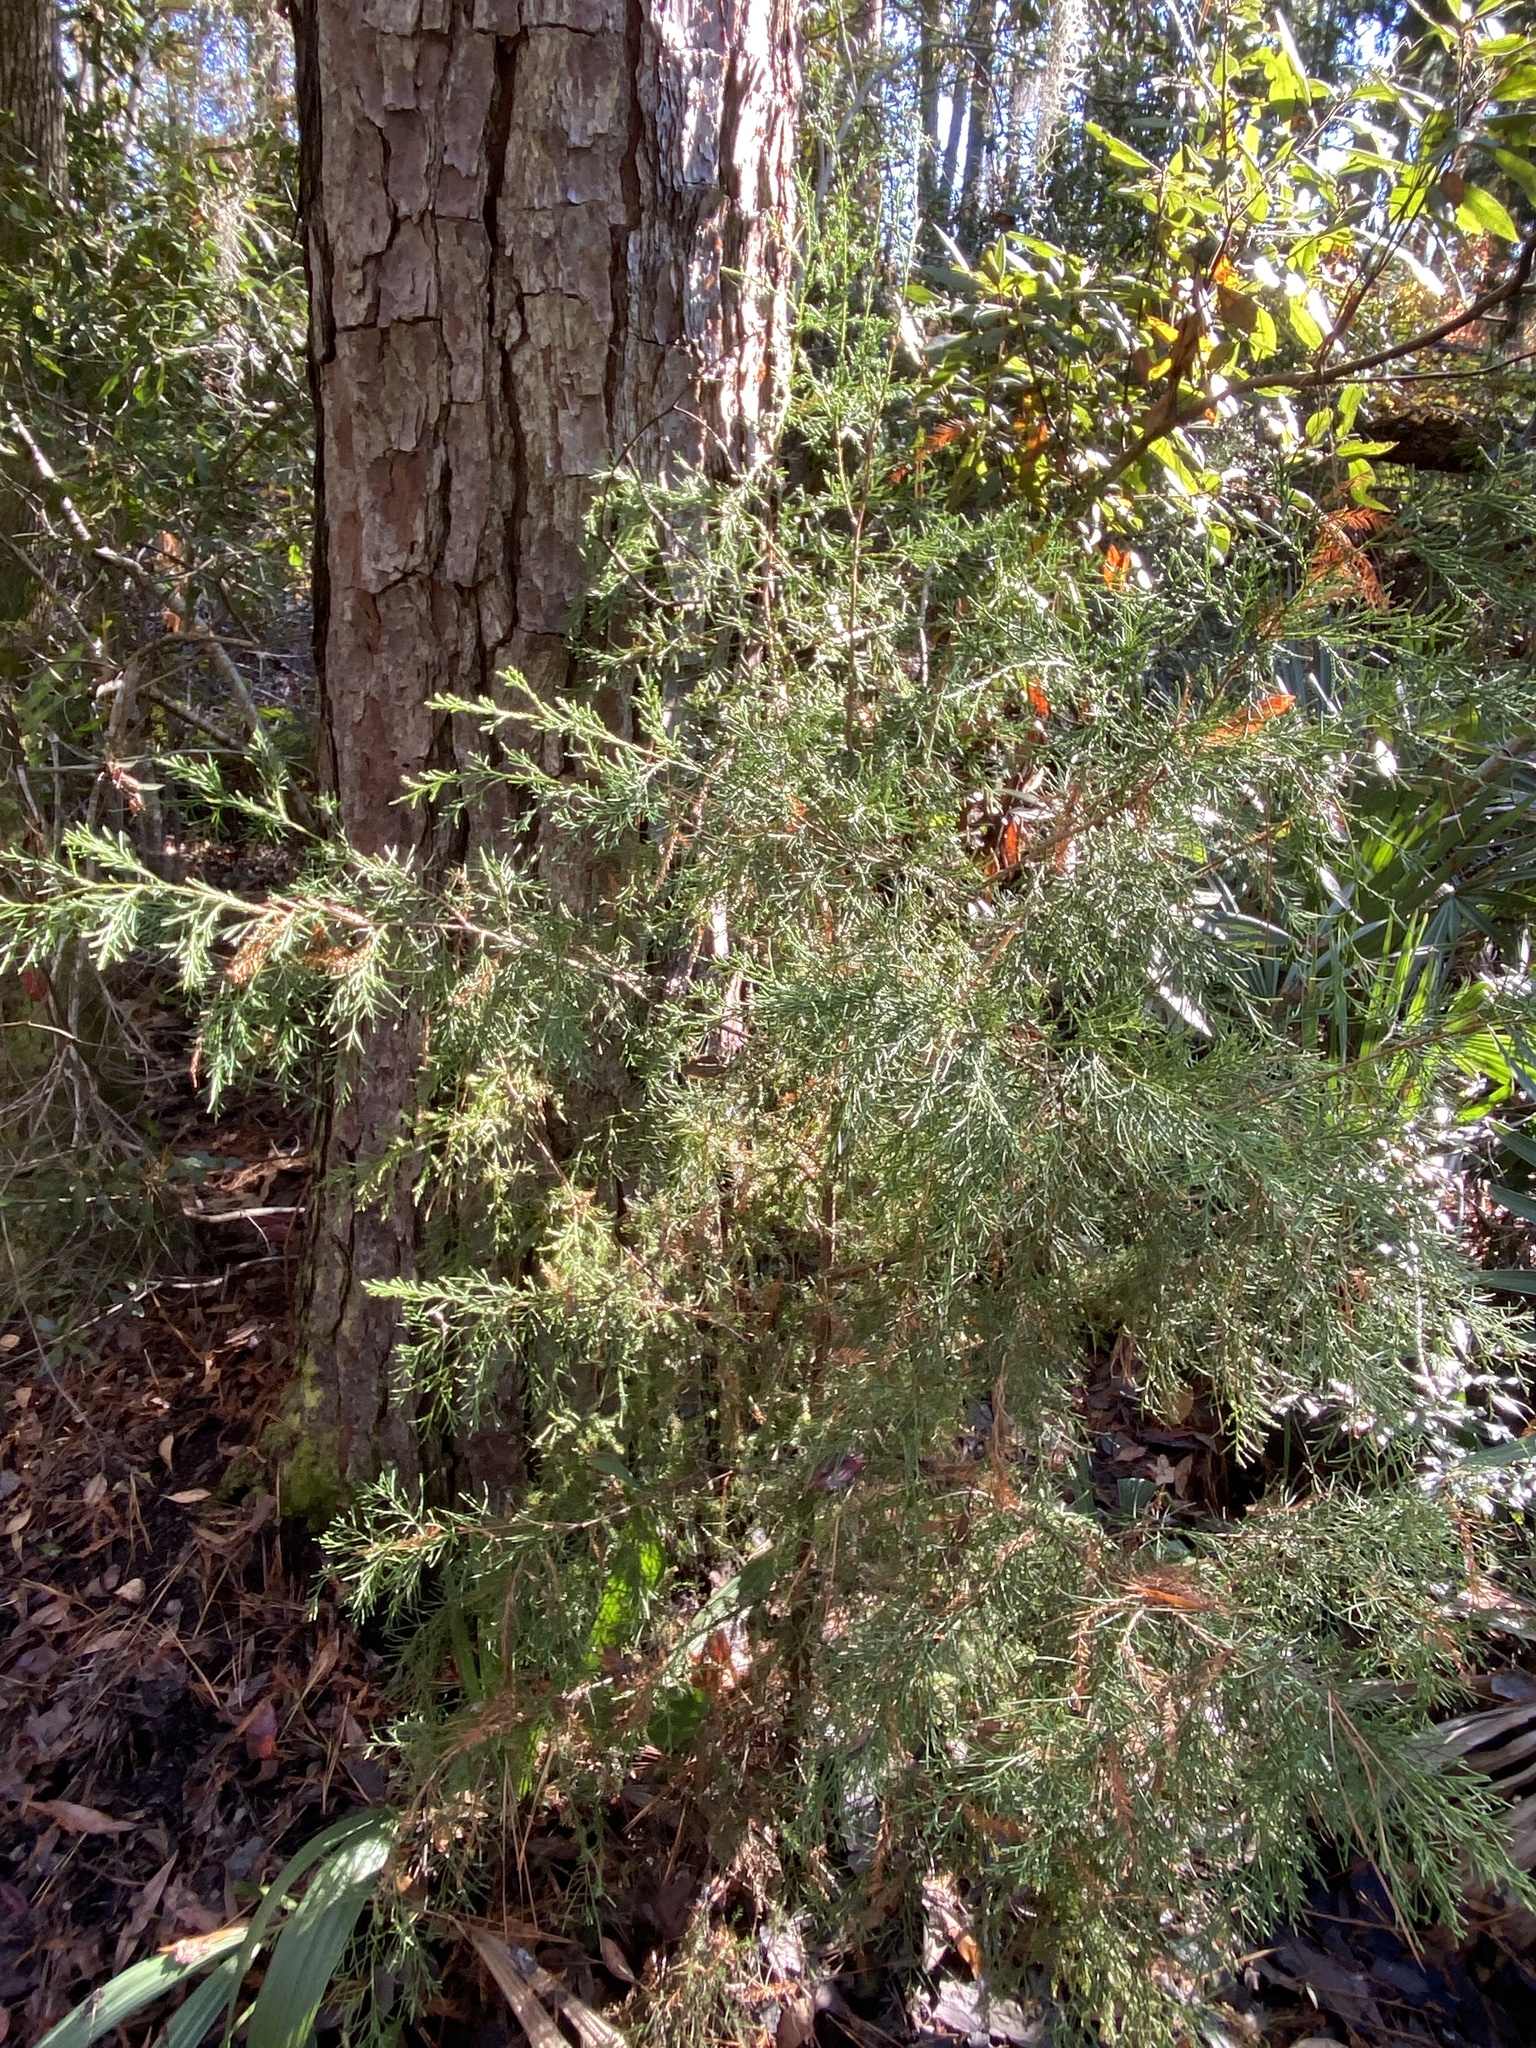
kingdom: Plantae
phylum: Tracheophyta
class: Pinopsida
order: Pinales
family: Cupressaceae
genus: Juniperus
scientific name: Juniperus virginiana
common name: Red juniper
